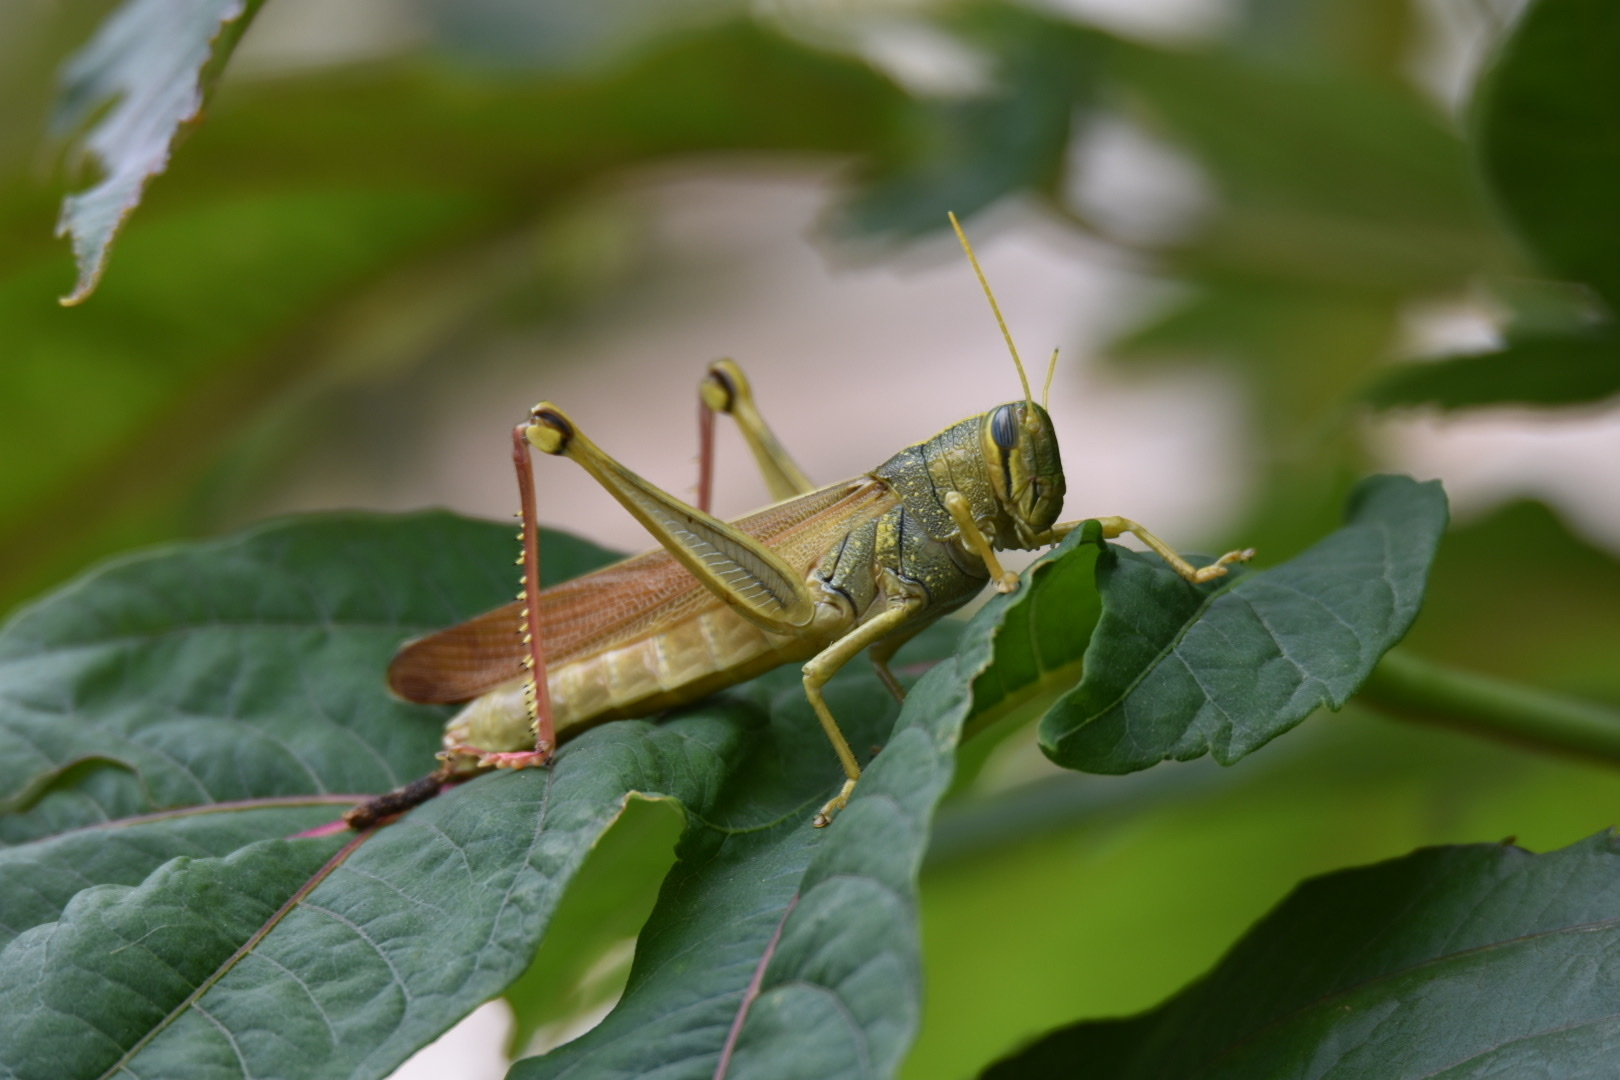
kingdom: Animalia
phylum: Arthropoda
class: Insecta
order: Orthoptera
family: Acrididae
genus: Schistocerca
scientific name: Schistocerca lineata
